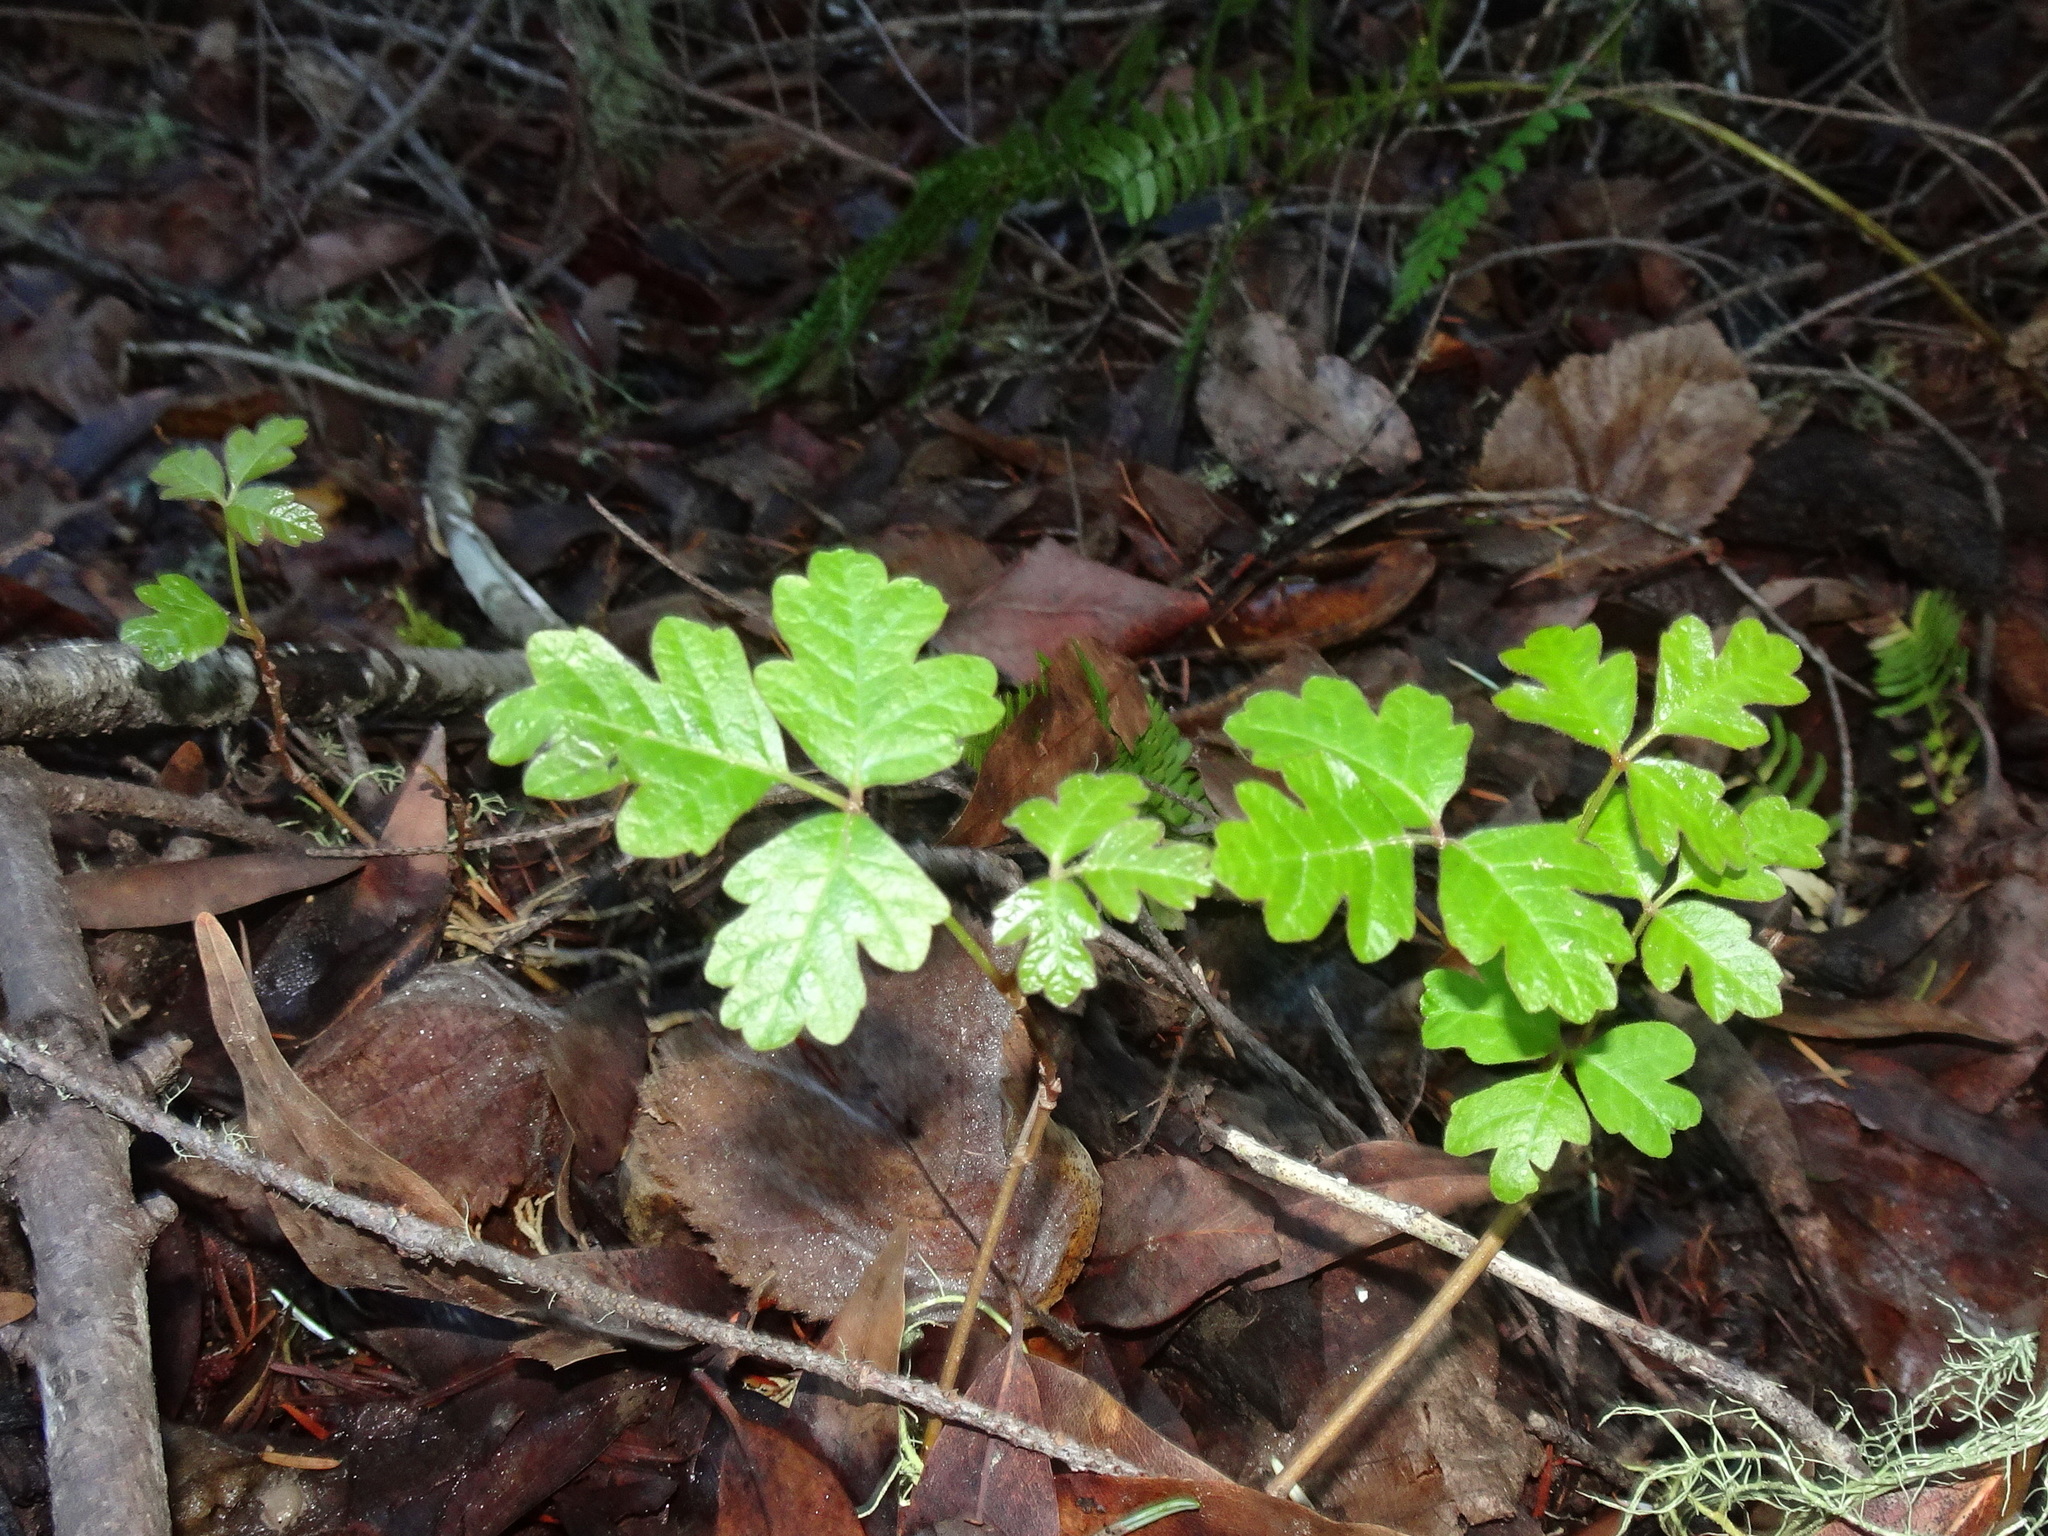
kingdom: Plantae
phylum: Tracheophyta
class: Magnoliopsida
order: Sapindales
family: Anacardiaceae
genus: Toxicodendron
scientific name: Toxicodendron diversilobum
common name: Pacific poison-oak
